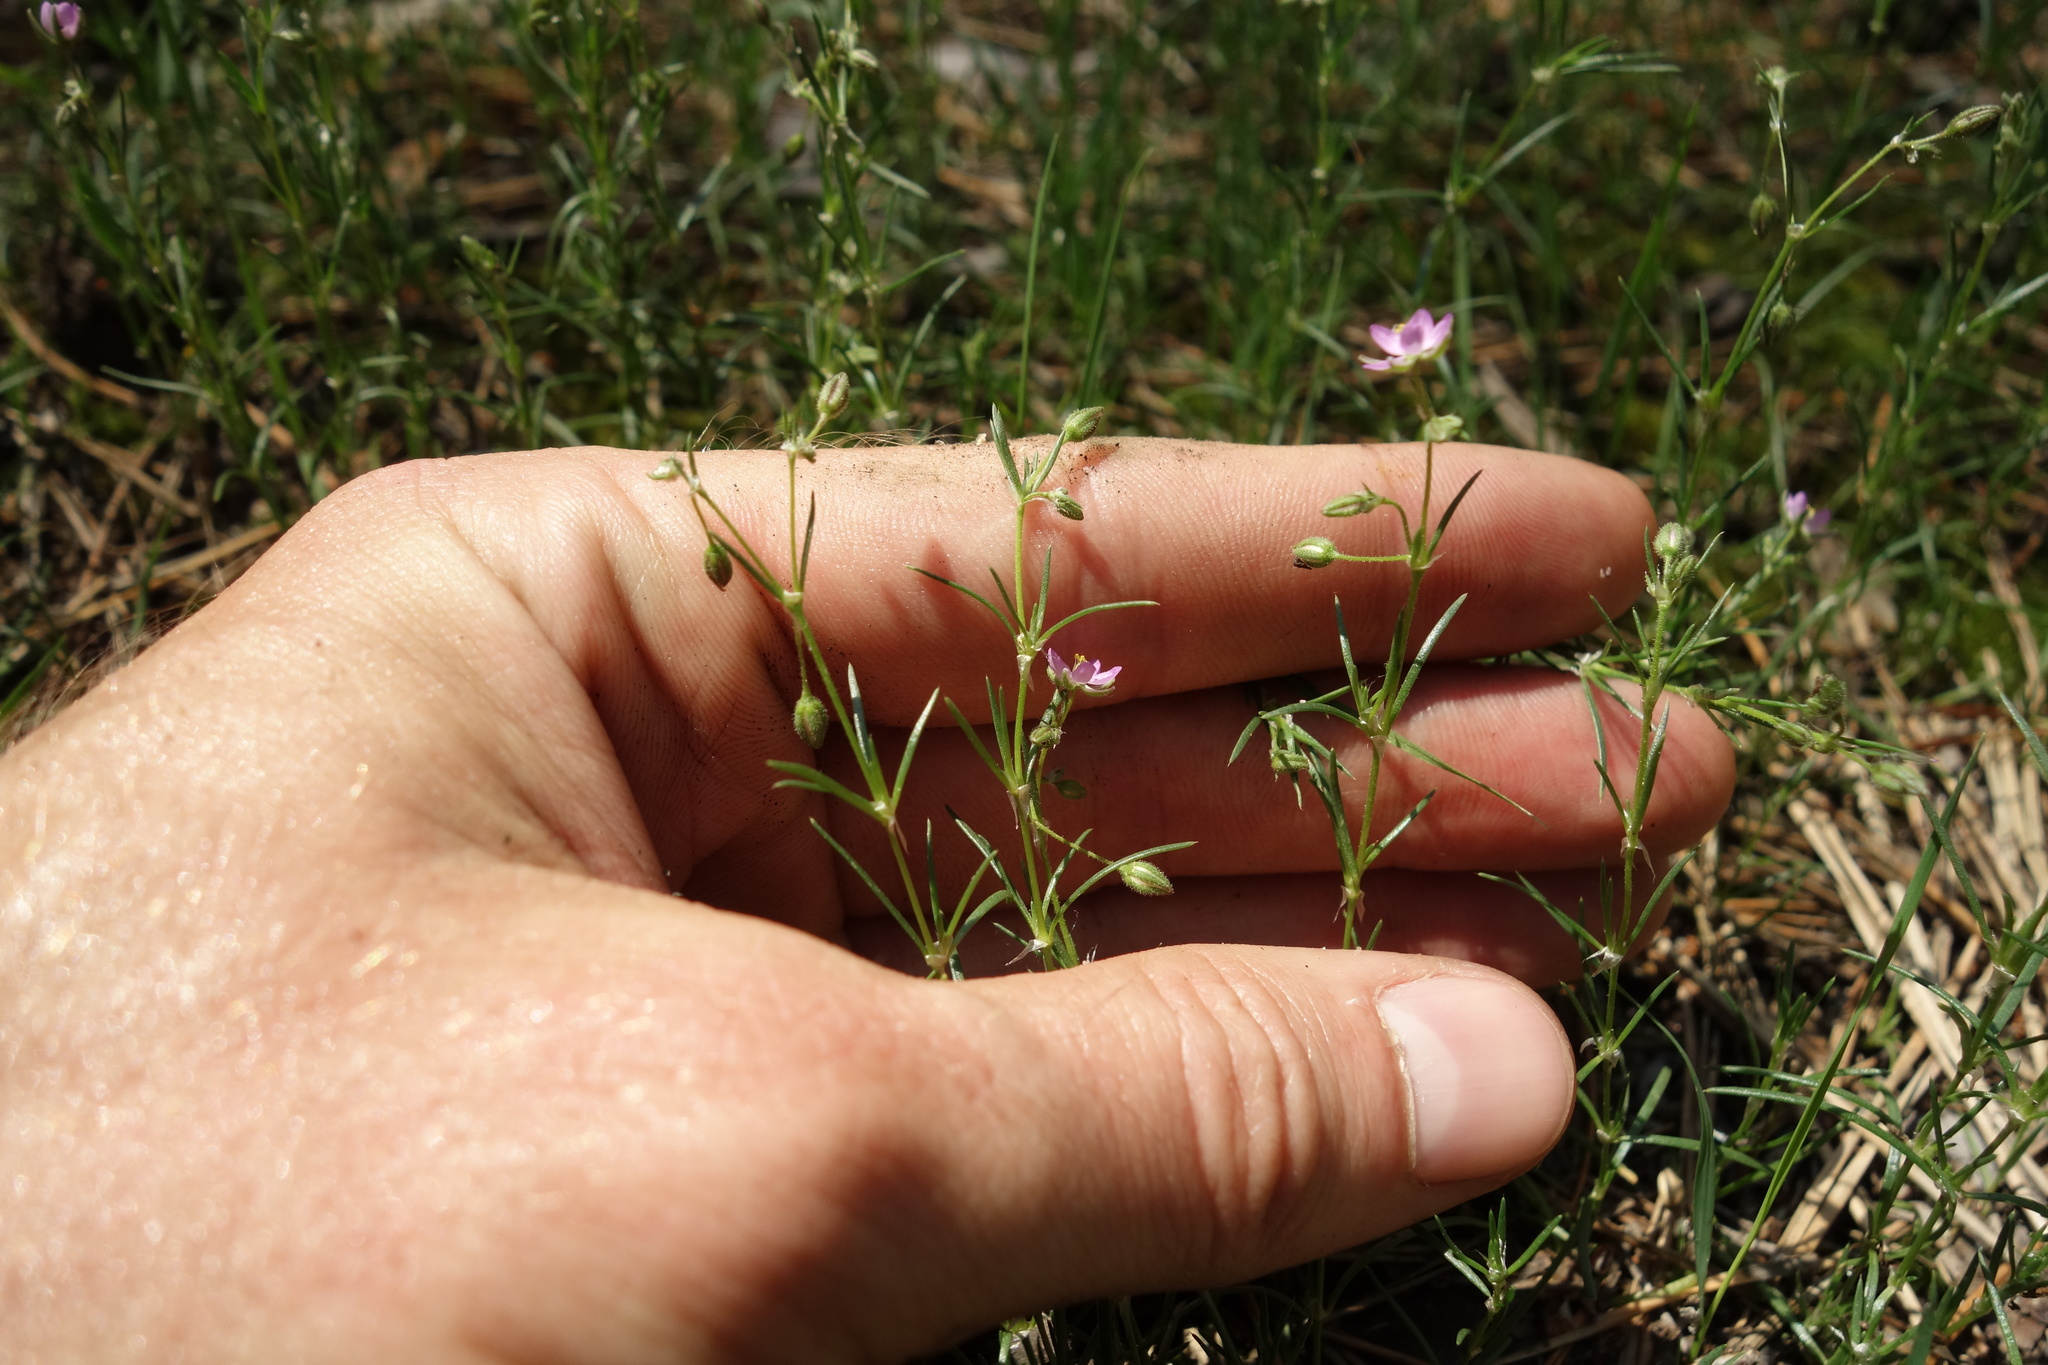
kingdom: Plantae
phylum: Tracheophyta
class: Magnoliopsida
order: Caryophyllales
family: Caryophyllaceae
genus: Spergularia
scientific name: Spergularia rubra
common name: Red sand-spurrey
